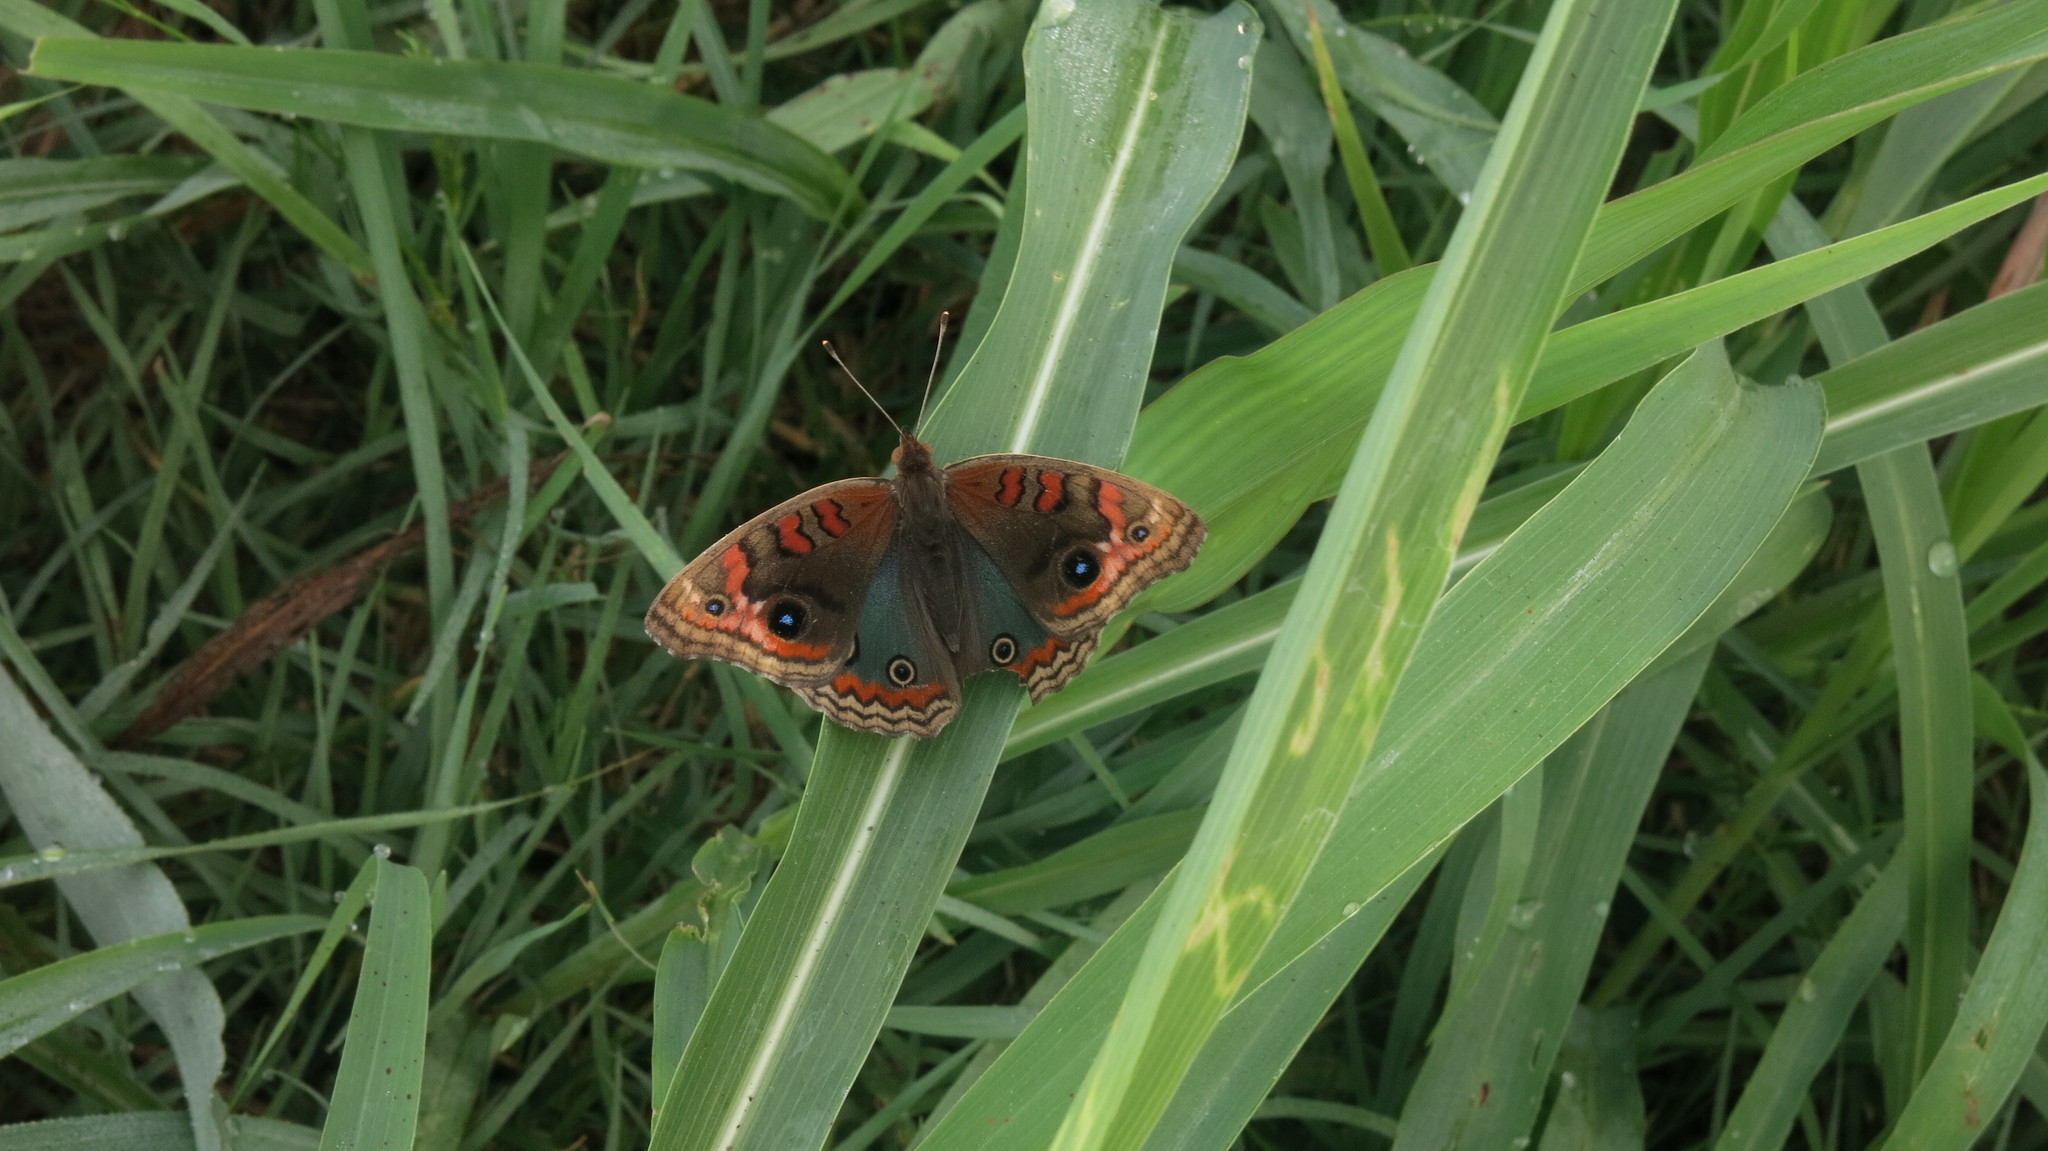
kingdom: Animalia
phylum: Arthropoda
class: Insecta
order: Lepidoptera
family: Nymphalidae
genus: Junonia
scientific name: Junonia lavinia
